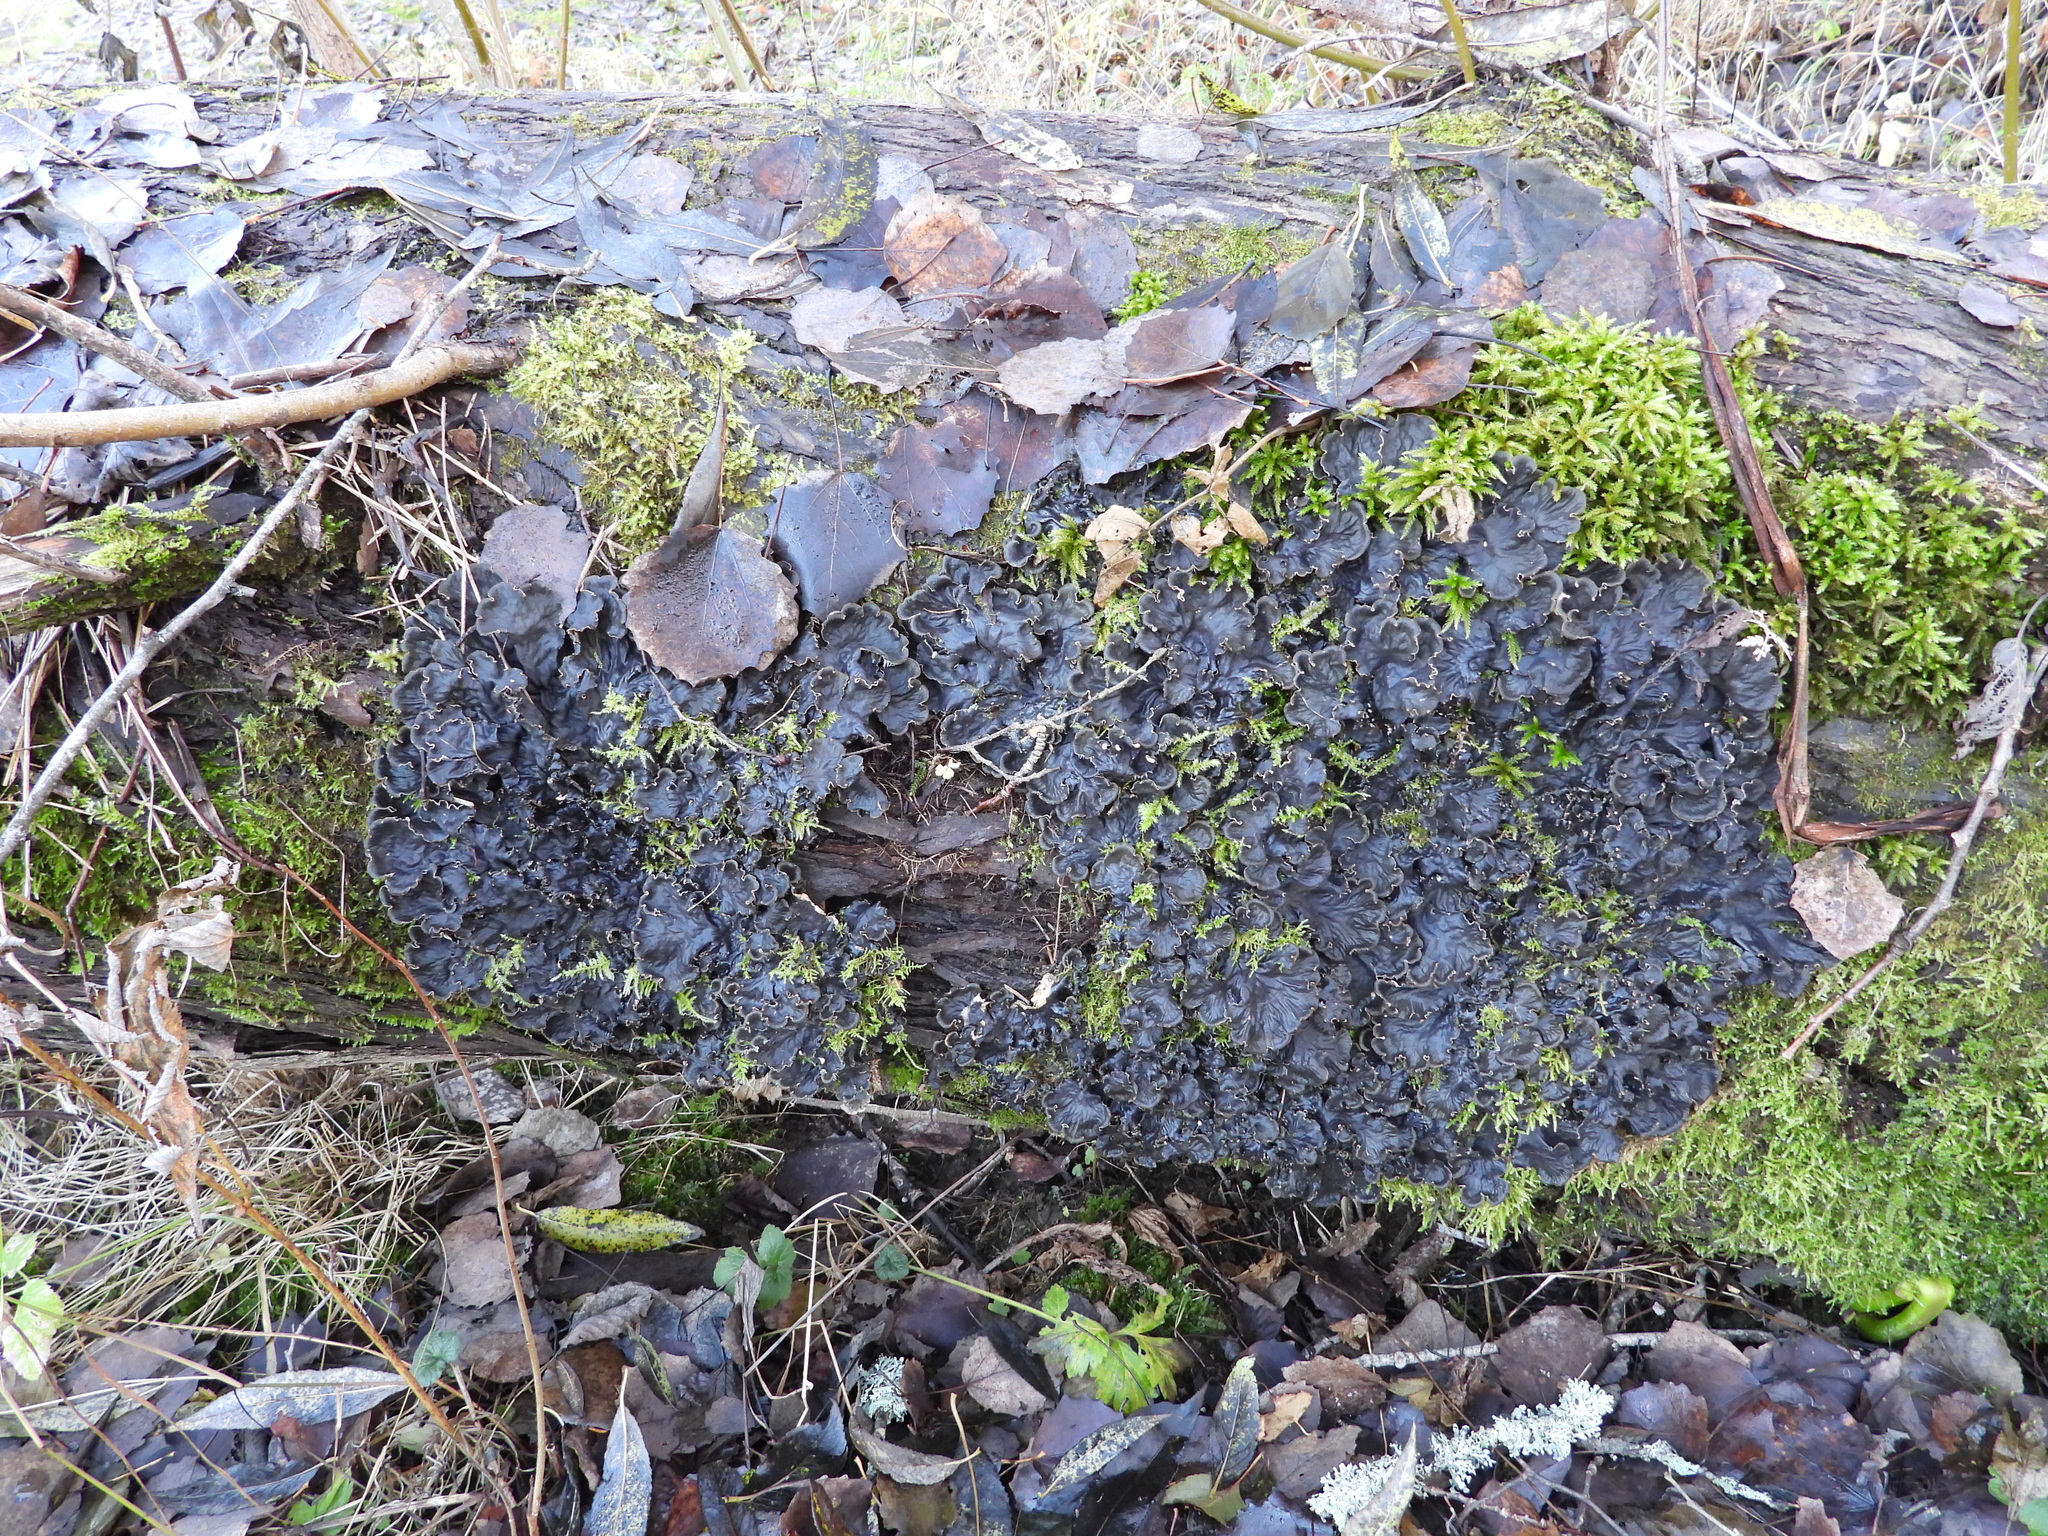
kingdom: Fungi
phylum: Ascomycota
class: Lecanoromycetes
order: Peltigerales
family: Peltigeraceae
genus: Peltigera
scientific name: Peltigera praetextata
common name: Scaly dog-lichen
